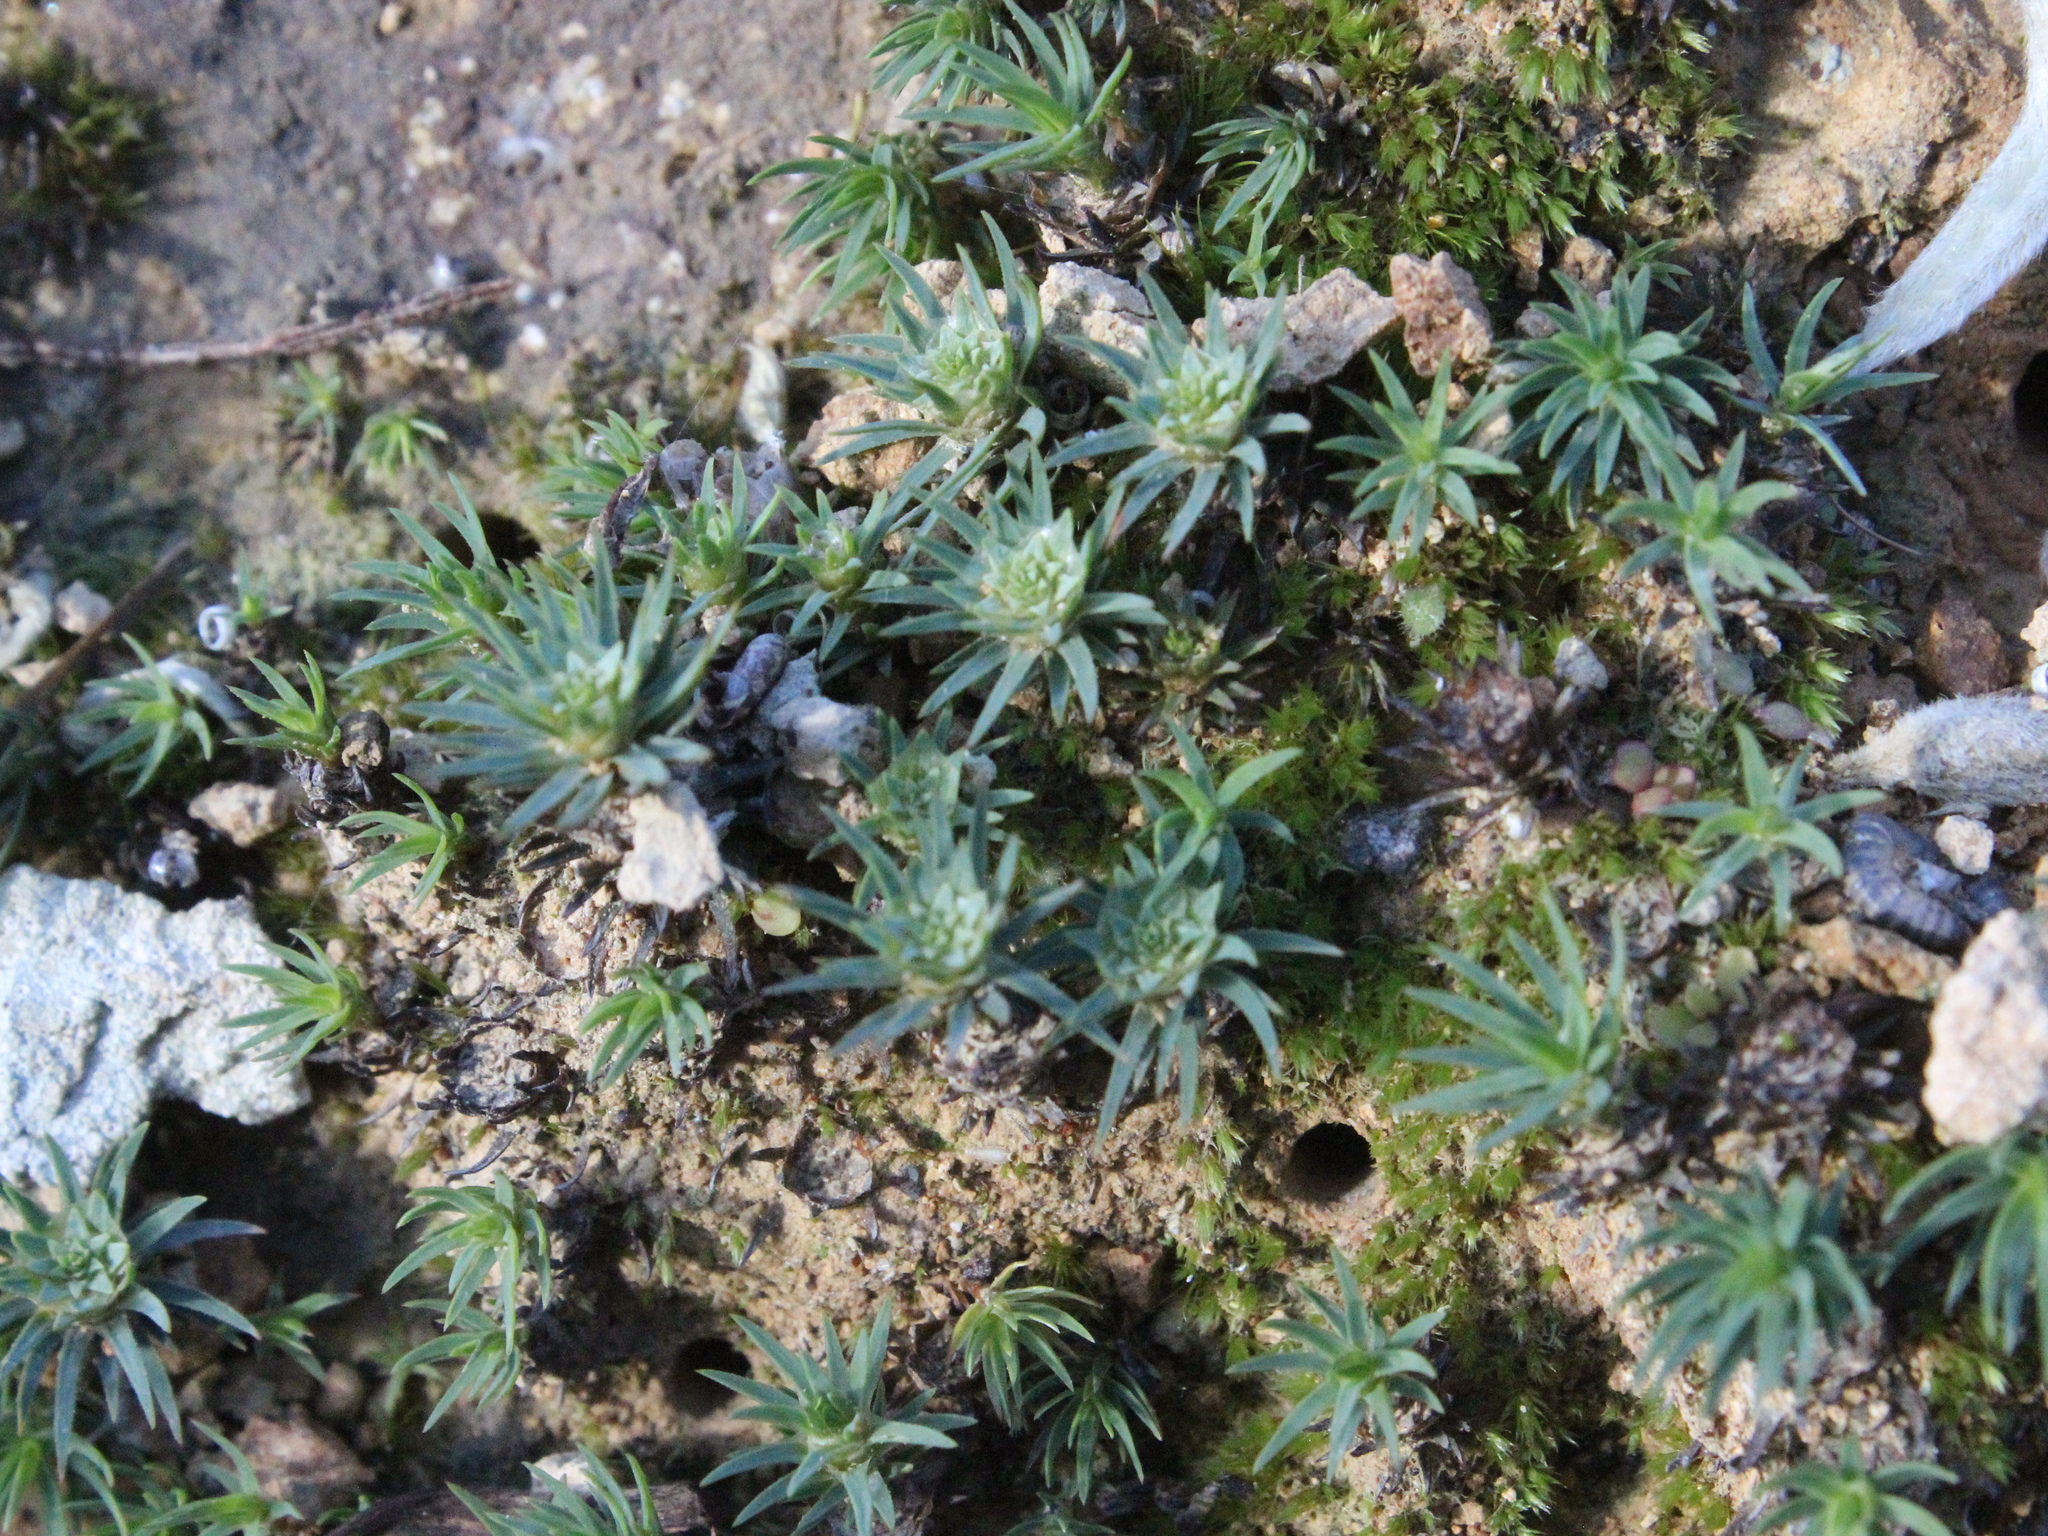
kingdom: Plantae
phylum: Bryophyta
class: Polytrichopsida
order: Polytrichales
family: Polytrichaceae
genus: Polytrichadelphus
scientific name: Polytrichadelphus magellanicus
